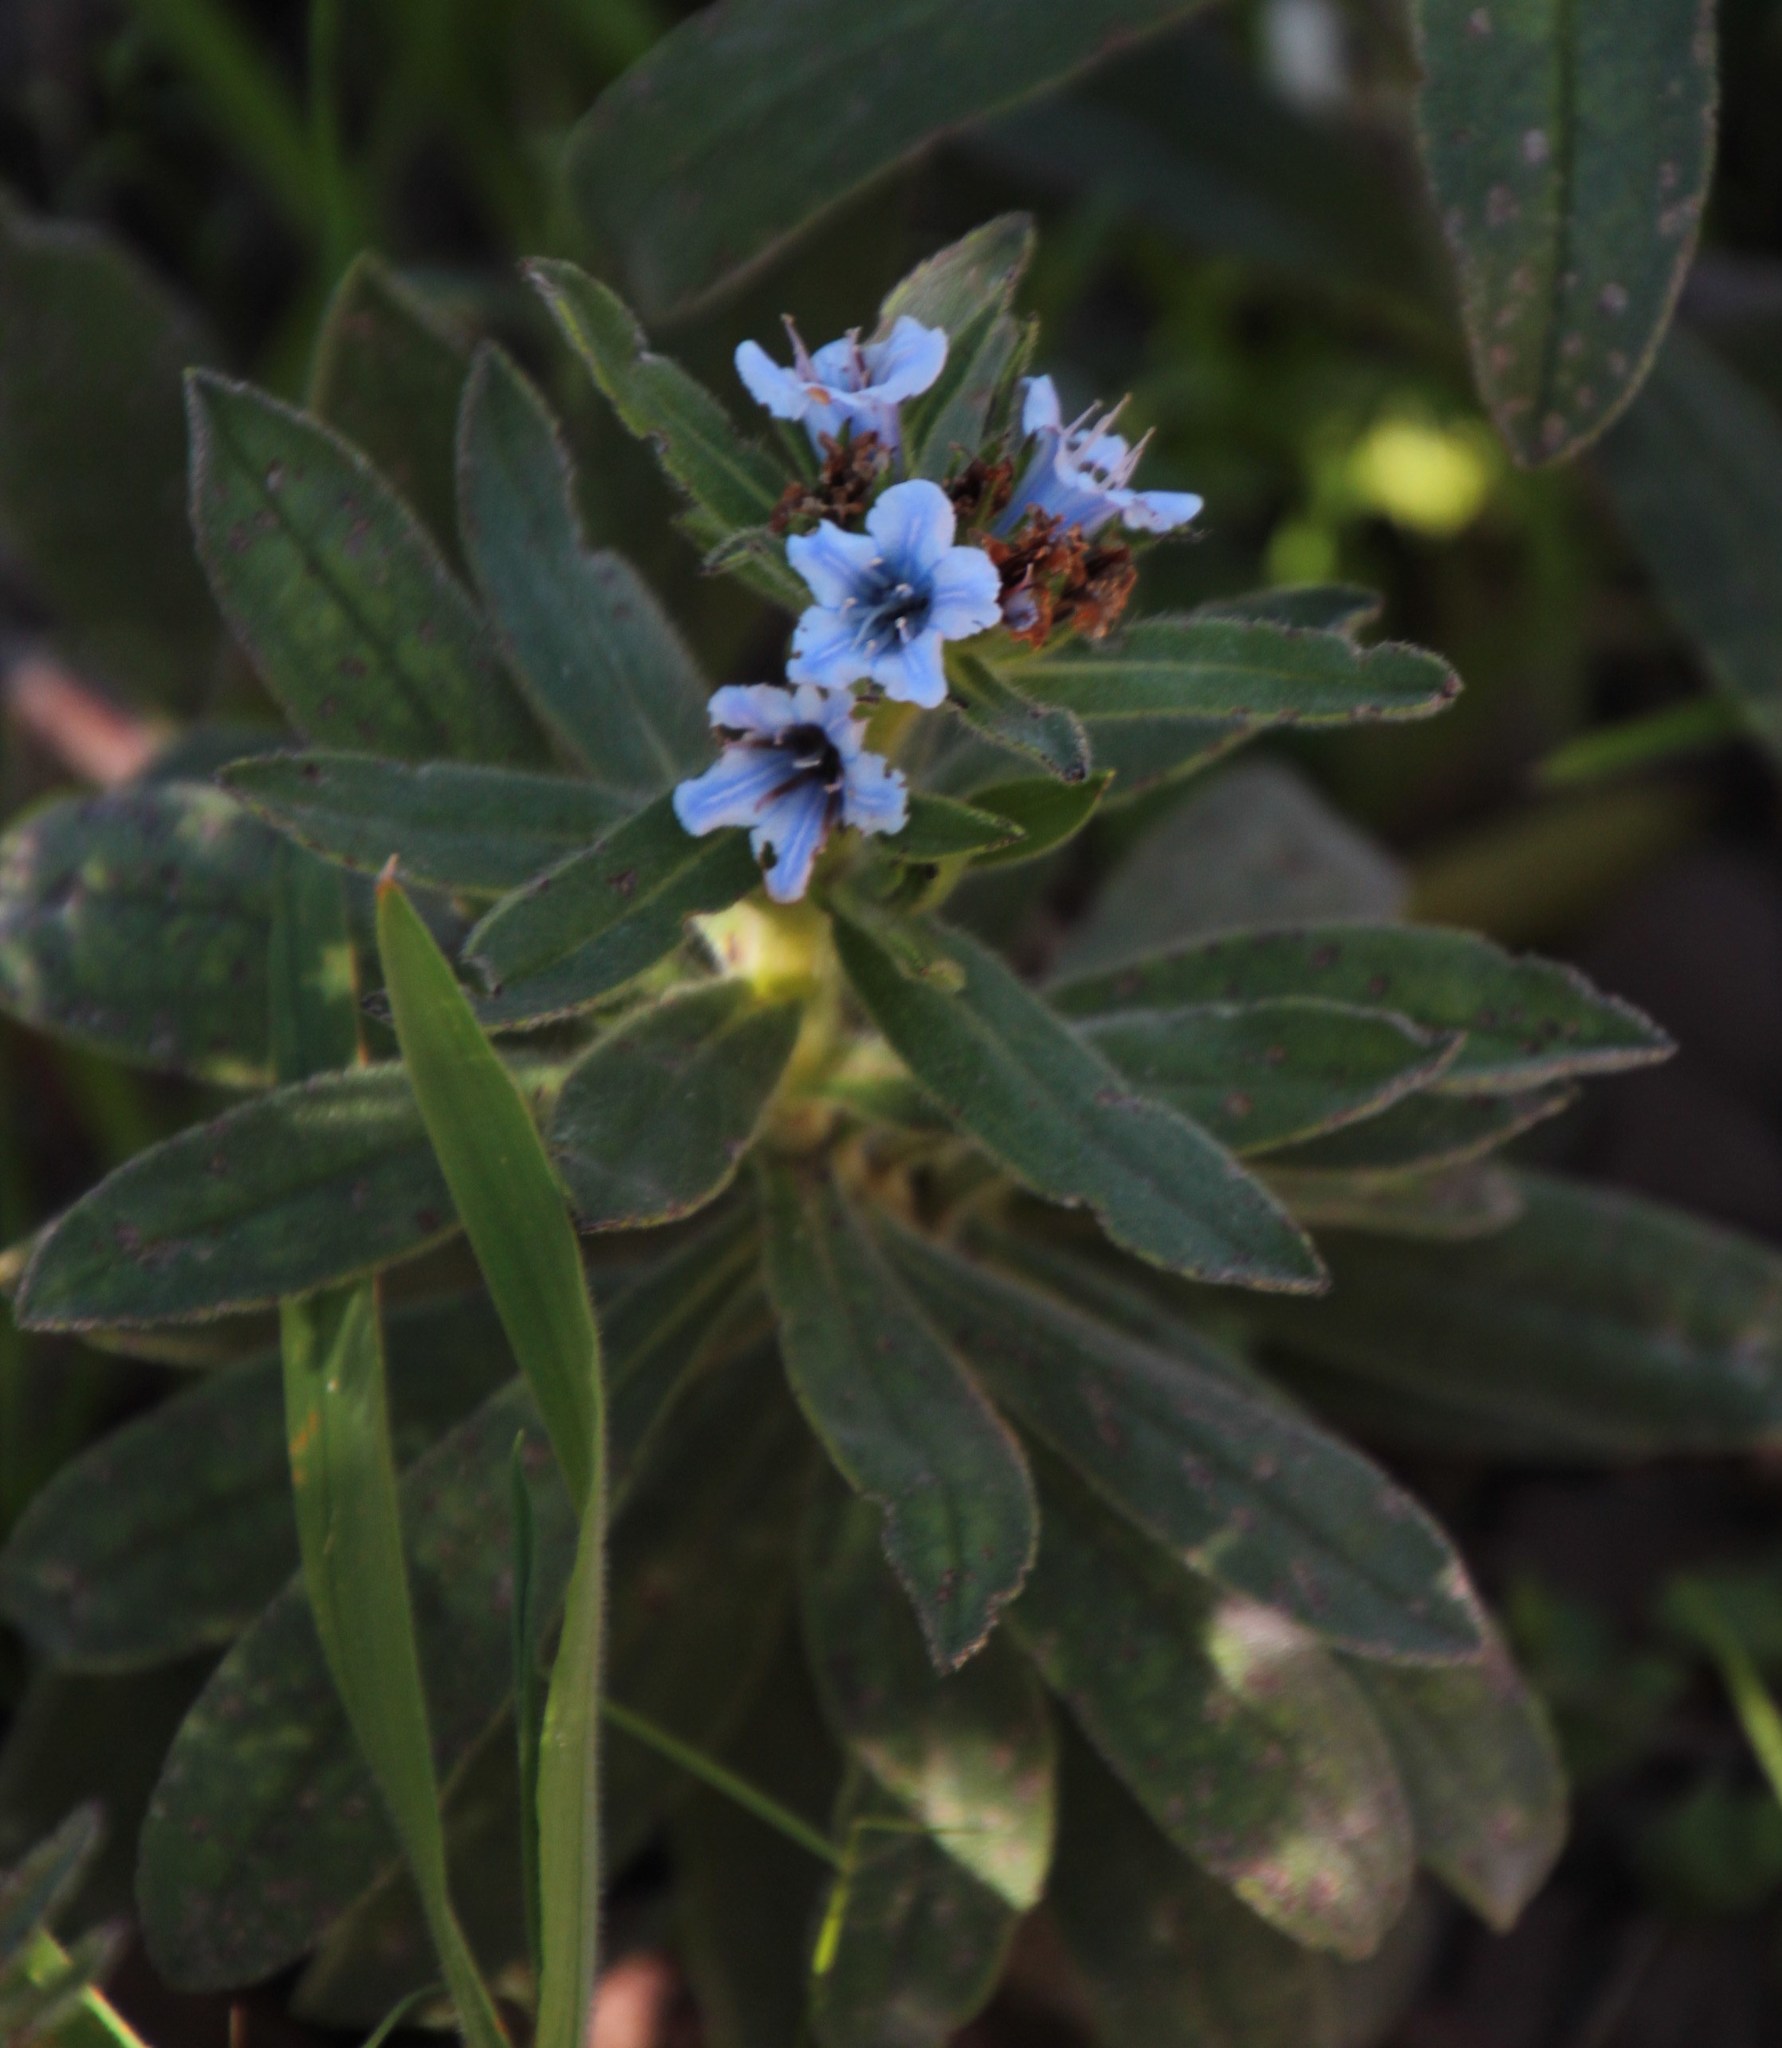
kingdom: Plantae
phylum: Tracheophyta
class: Magnoliopsida
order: Boraginales
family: Boraginaceae
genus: Lobostemon
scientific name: Lobostemon montanus
